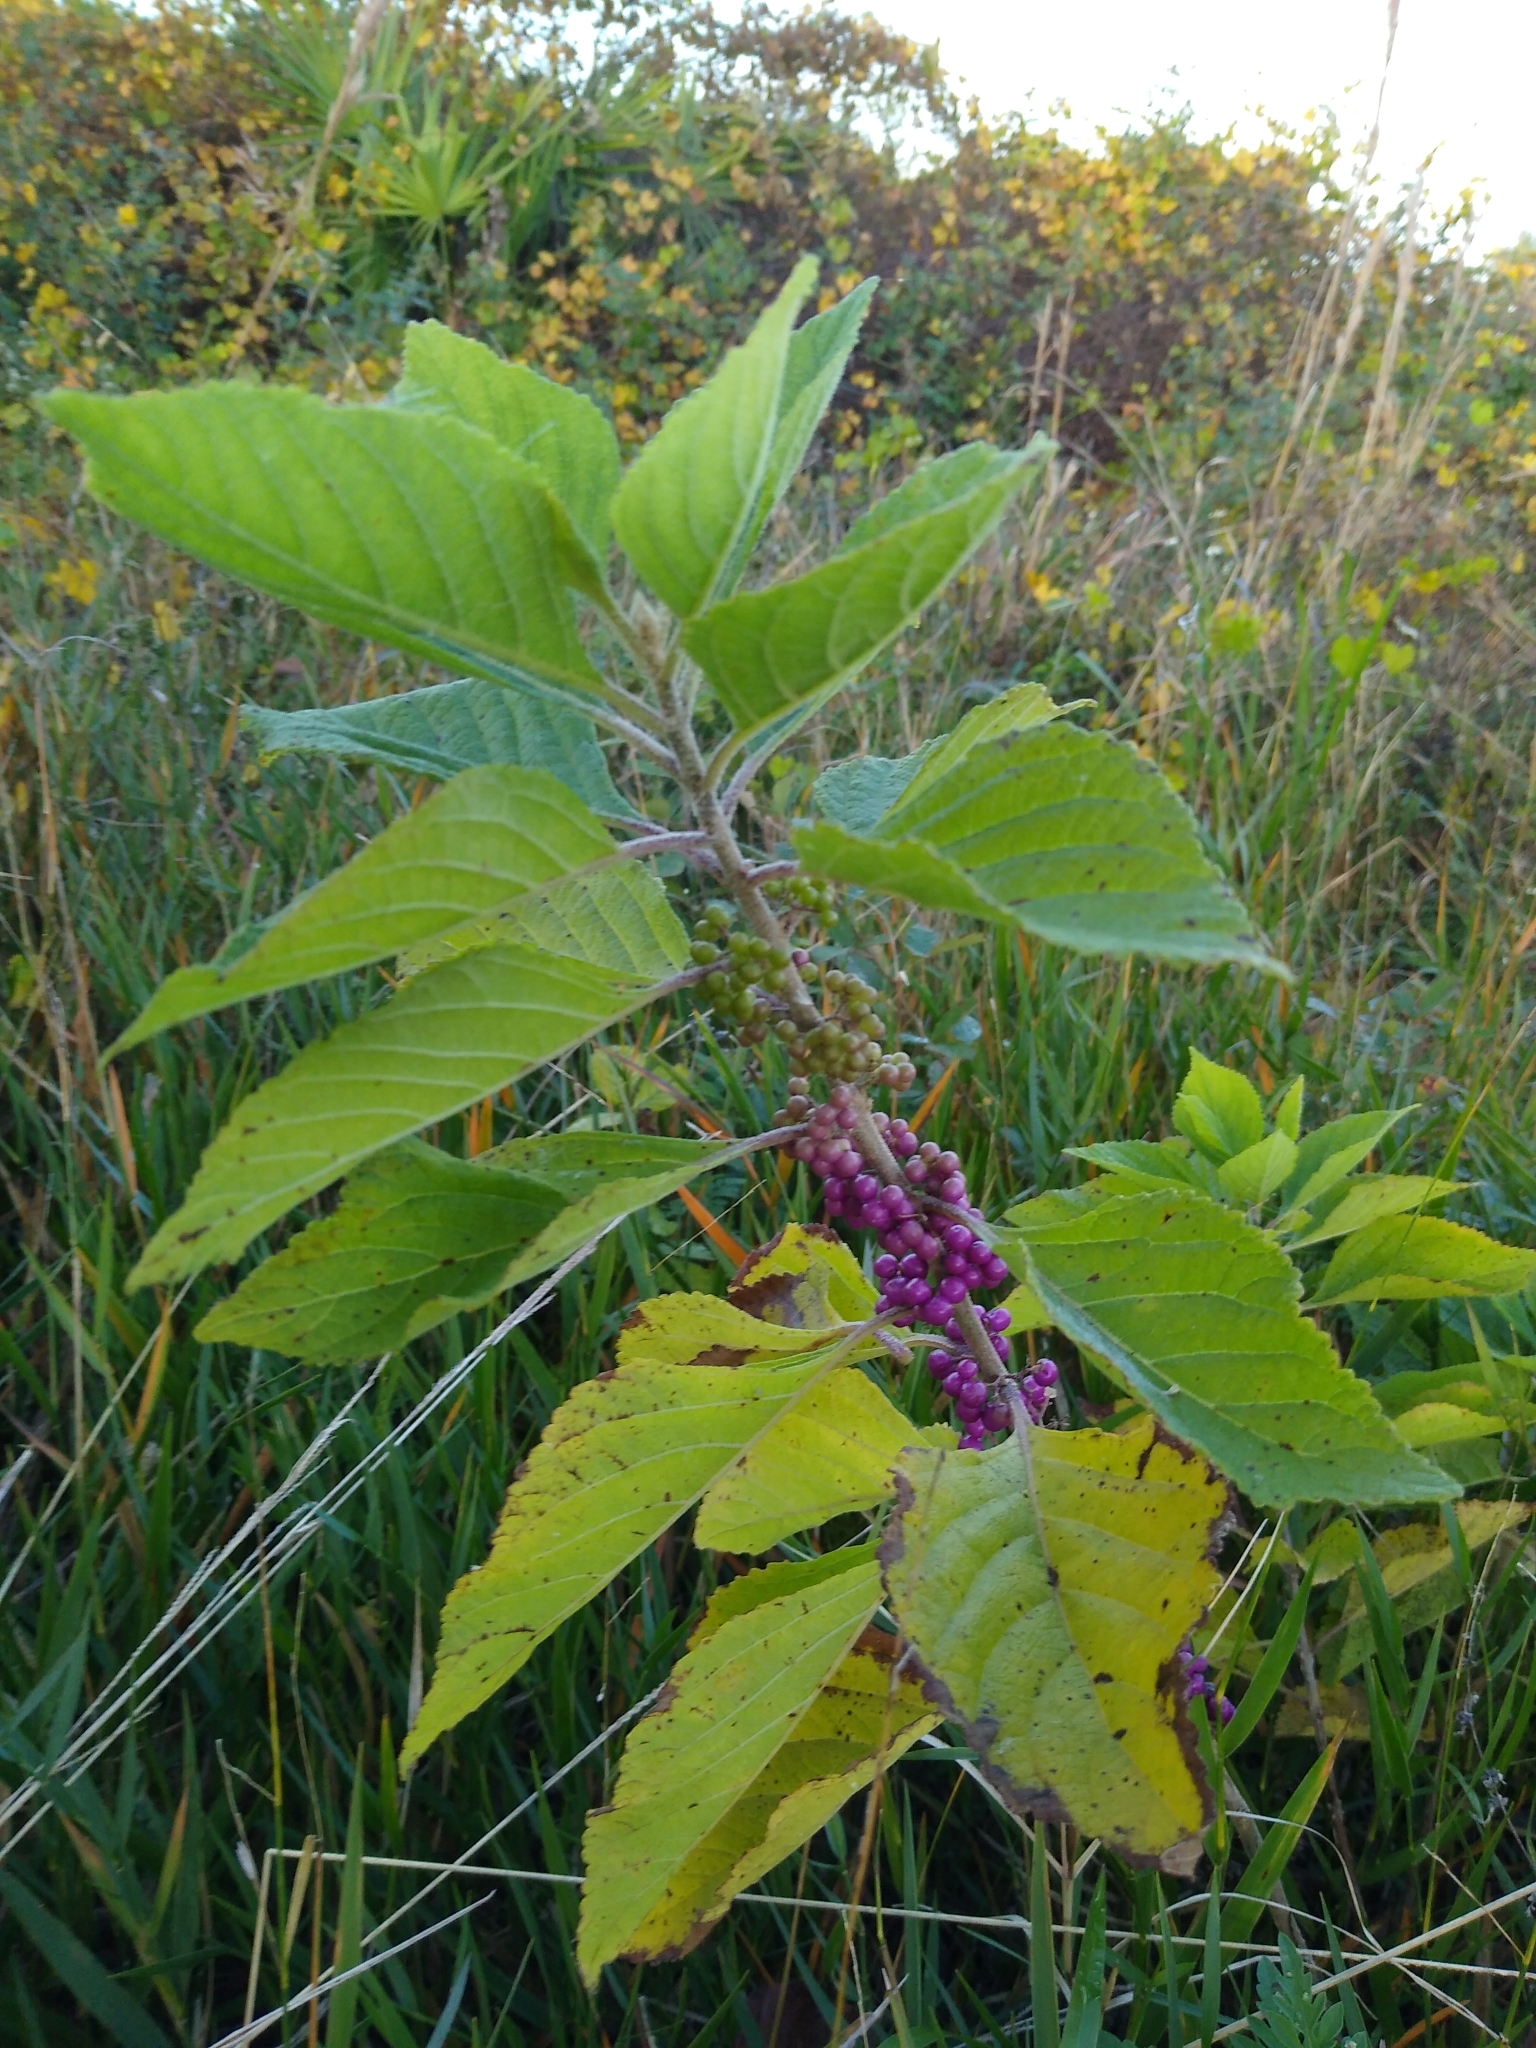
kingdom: Plantae
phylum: Tracheophyta
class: Magnoliopsida
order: Lamiales
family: Lamiaceae
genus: Callicarpa
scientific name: Callicarpa americana
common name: American beautyberry
